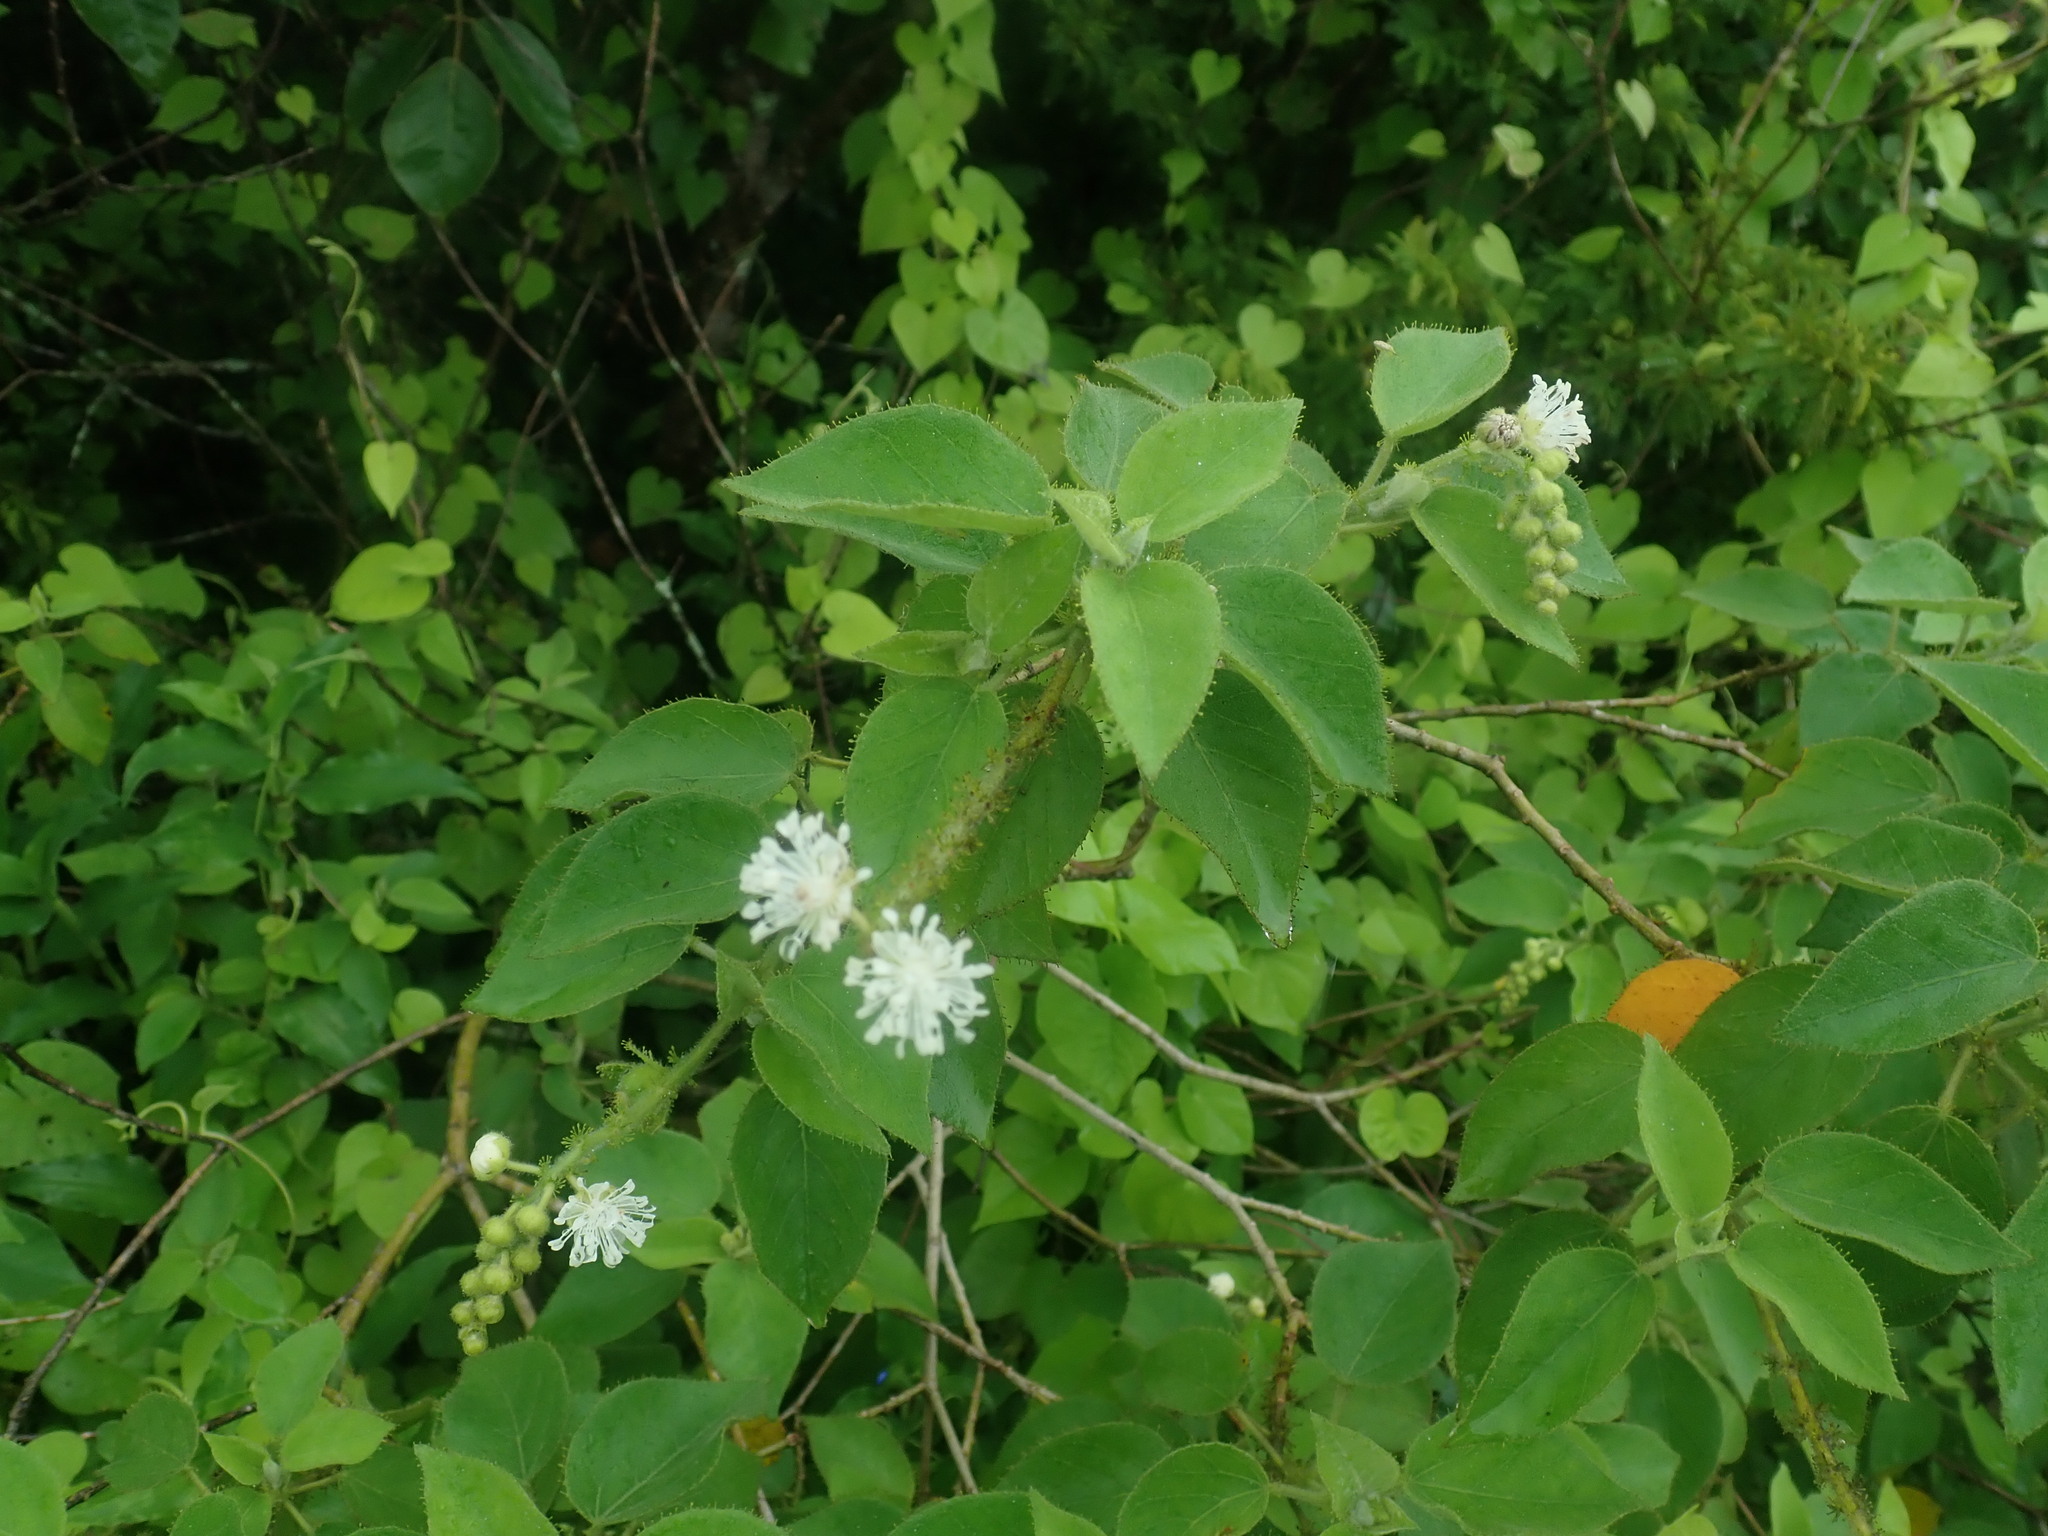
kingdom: Plantae
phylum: Tracheophyta
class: Magnoliopsida
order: Malpighiales
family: Euphorbiaceae
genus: Croton
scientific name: Croton ciliatoglandulifer
